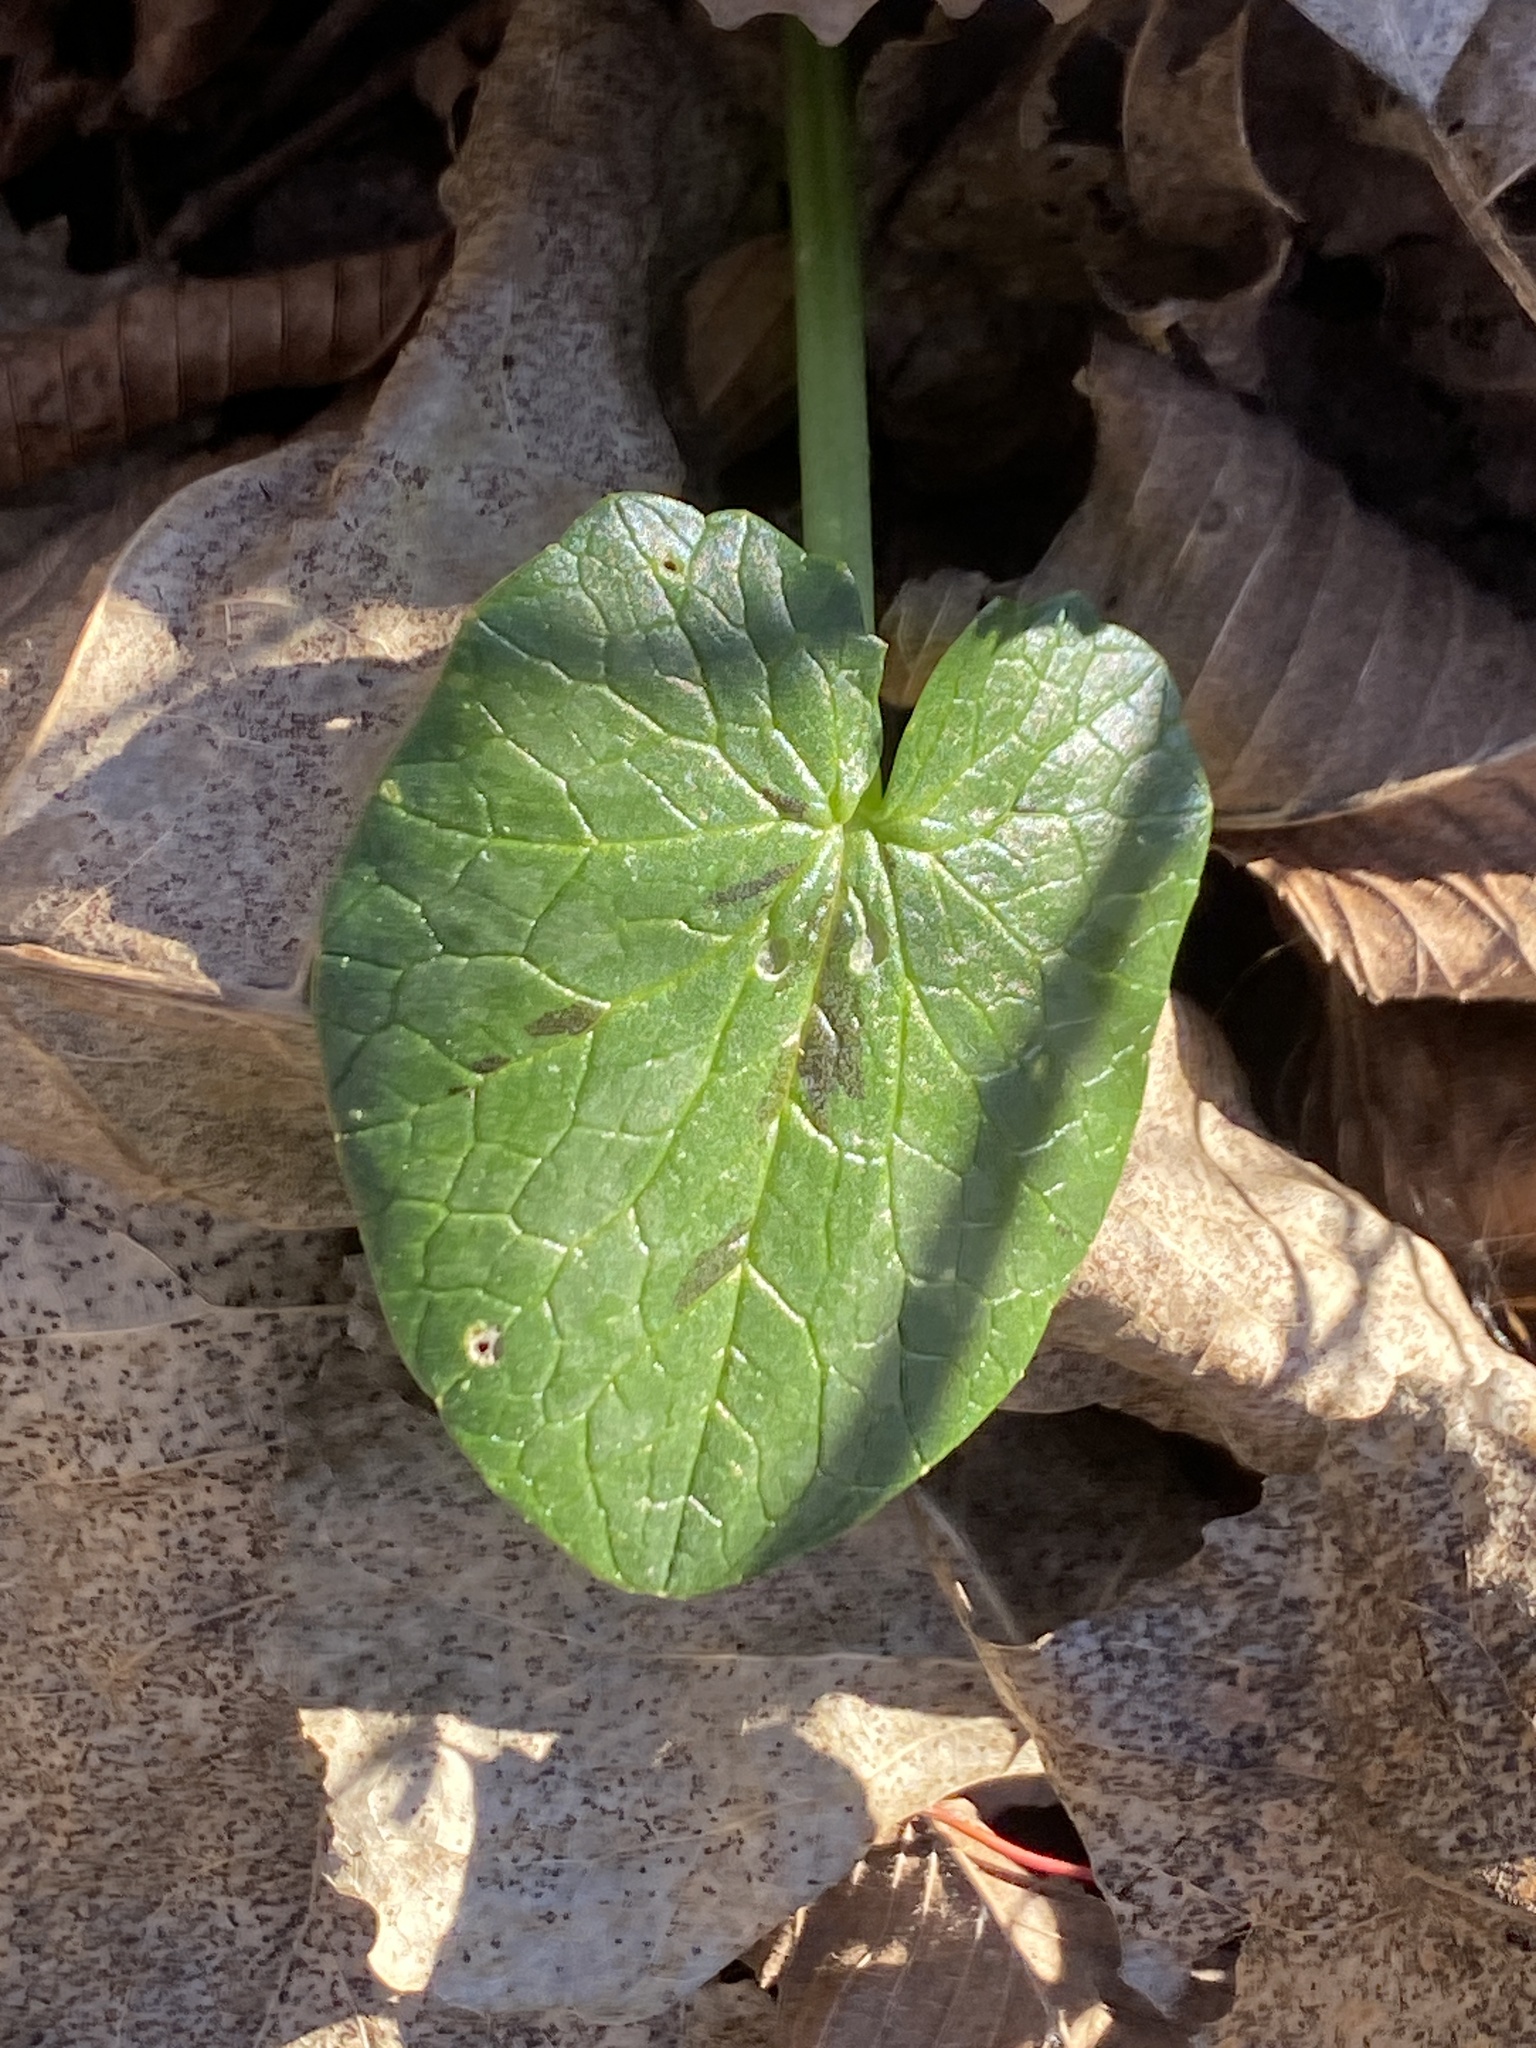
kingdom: Plantae
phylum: Tracheophyta
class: Magnoliopsida
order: Ranunculales
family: Ranunculaceae
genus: Ficaria
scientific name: Ficaria verna
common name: Lesser celandine
